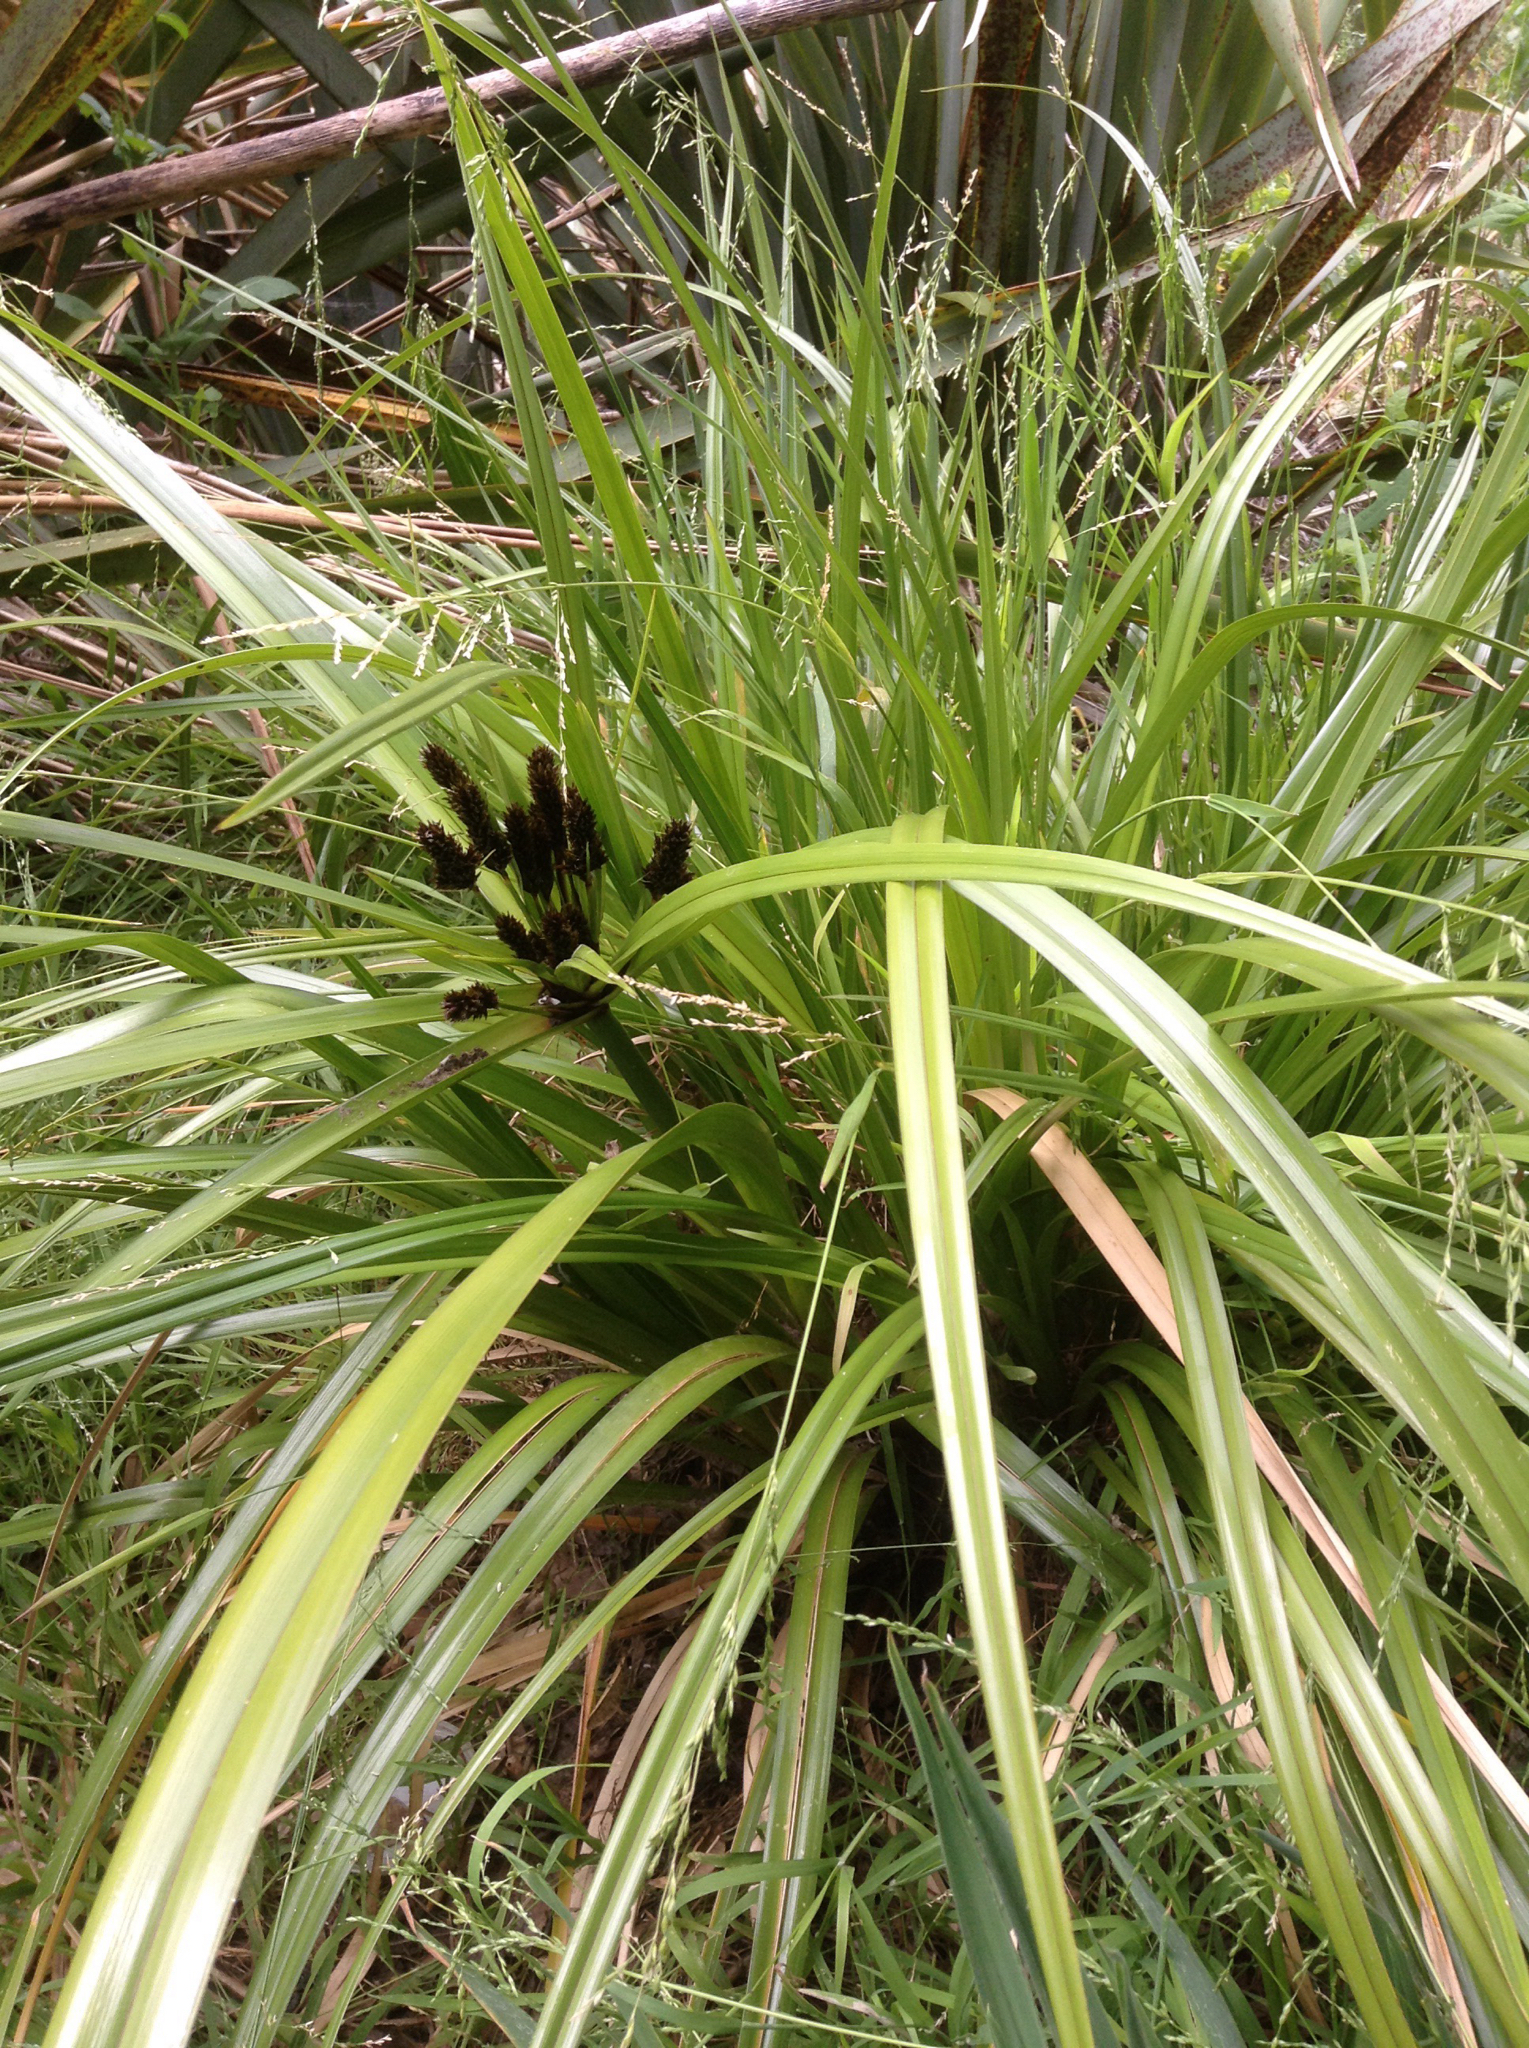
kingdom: Plantae
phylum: Tracheophyta
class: Liliopsida
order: Poales
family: Cyperaceae
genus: Cyperus
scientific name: Cyperus ustulatus
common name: Giant umbrella-sedge
